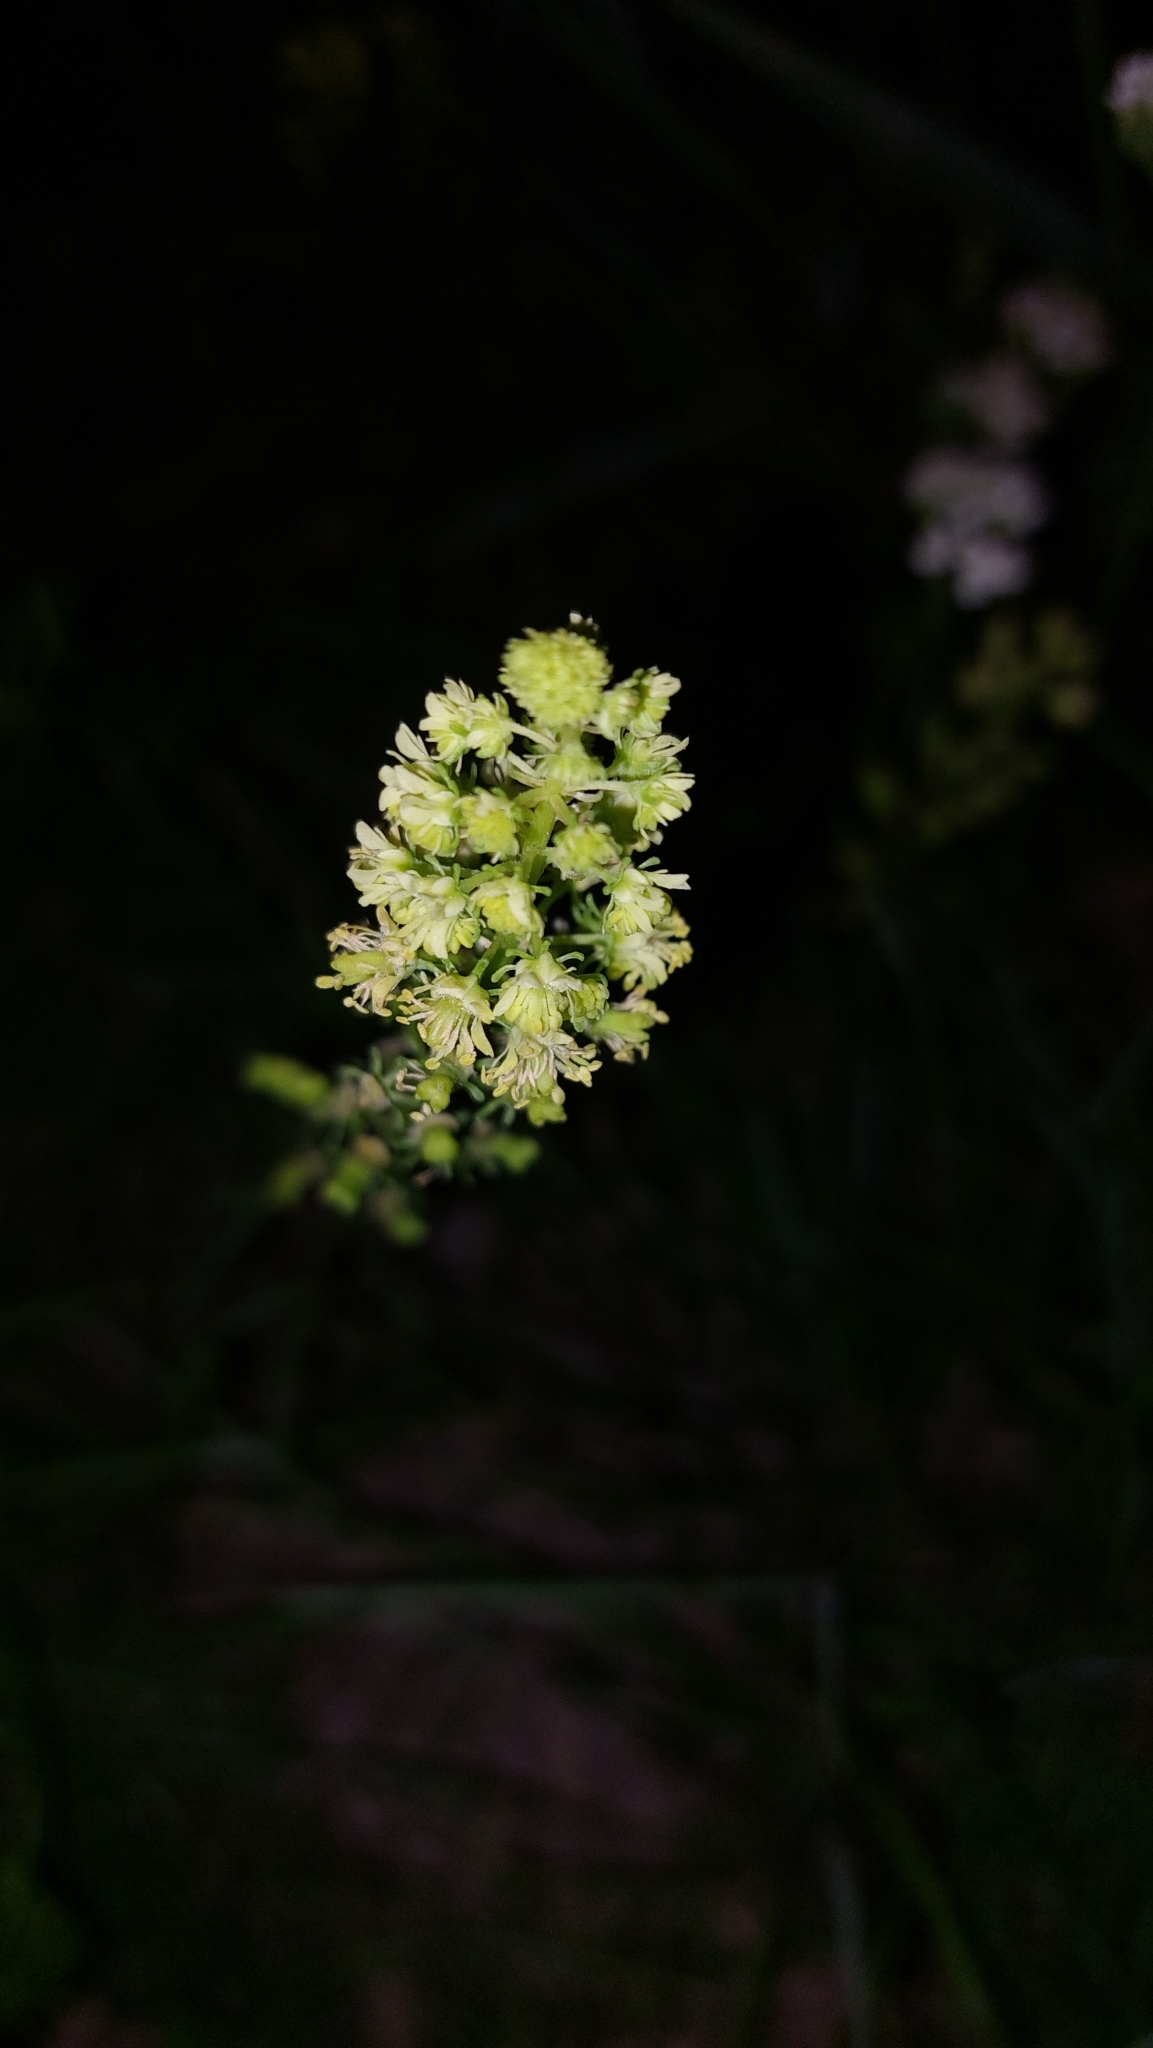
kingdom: Plantae
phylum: Tracheophyta
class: Magnoliopsida
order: Brassicales
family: Resedaceae
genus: Reseda
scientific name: Reseda lutea
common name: Wild mignonette
